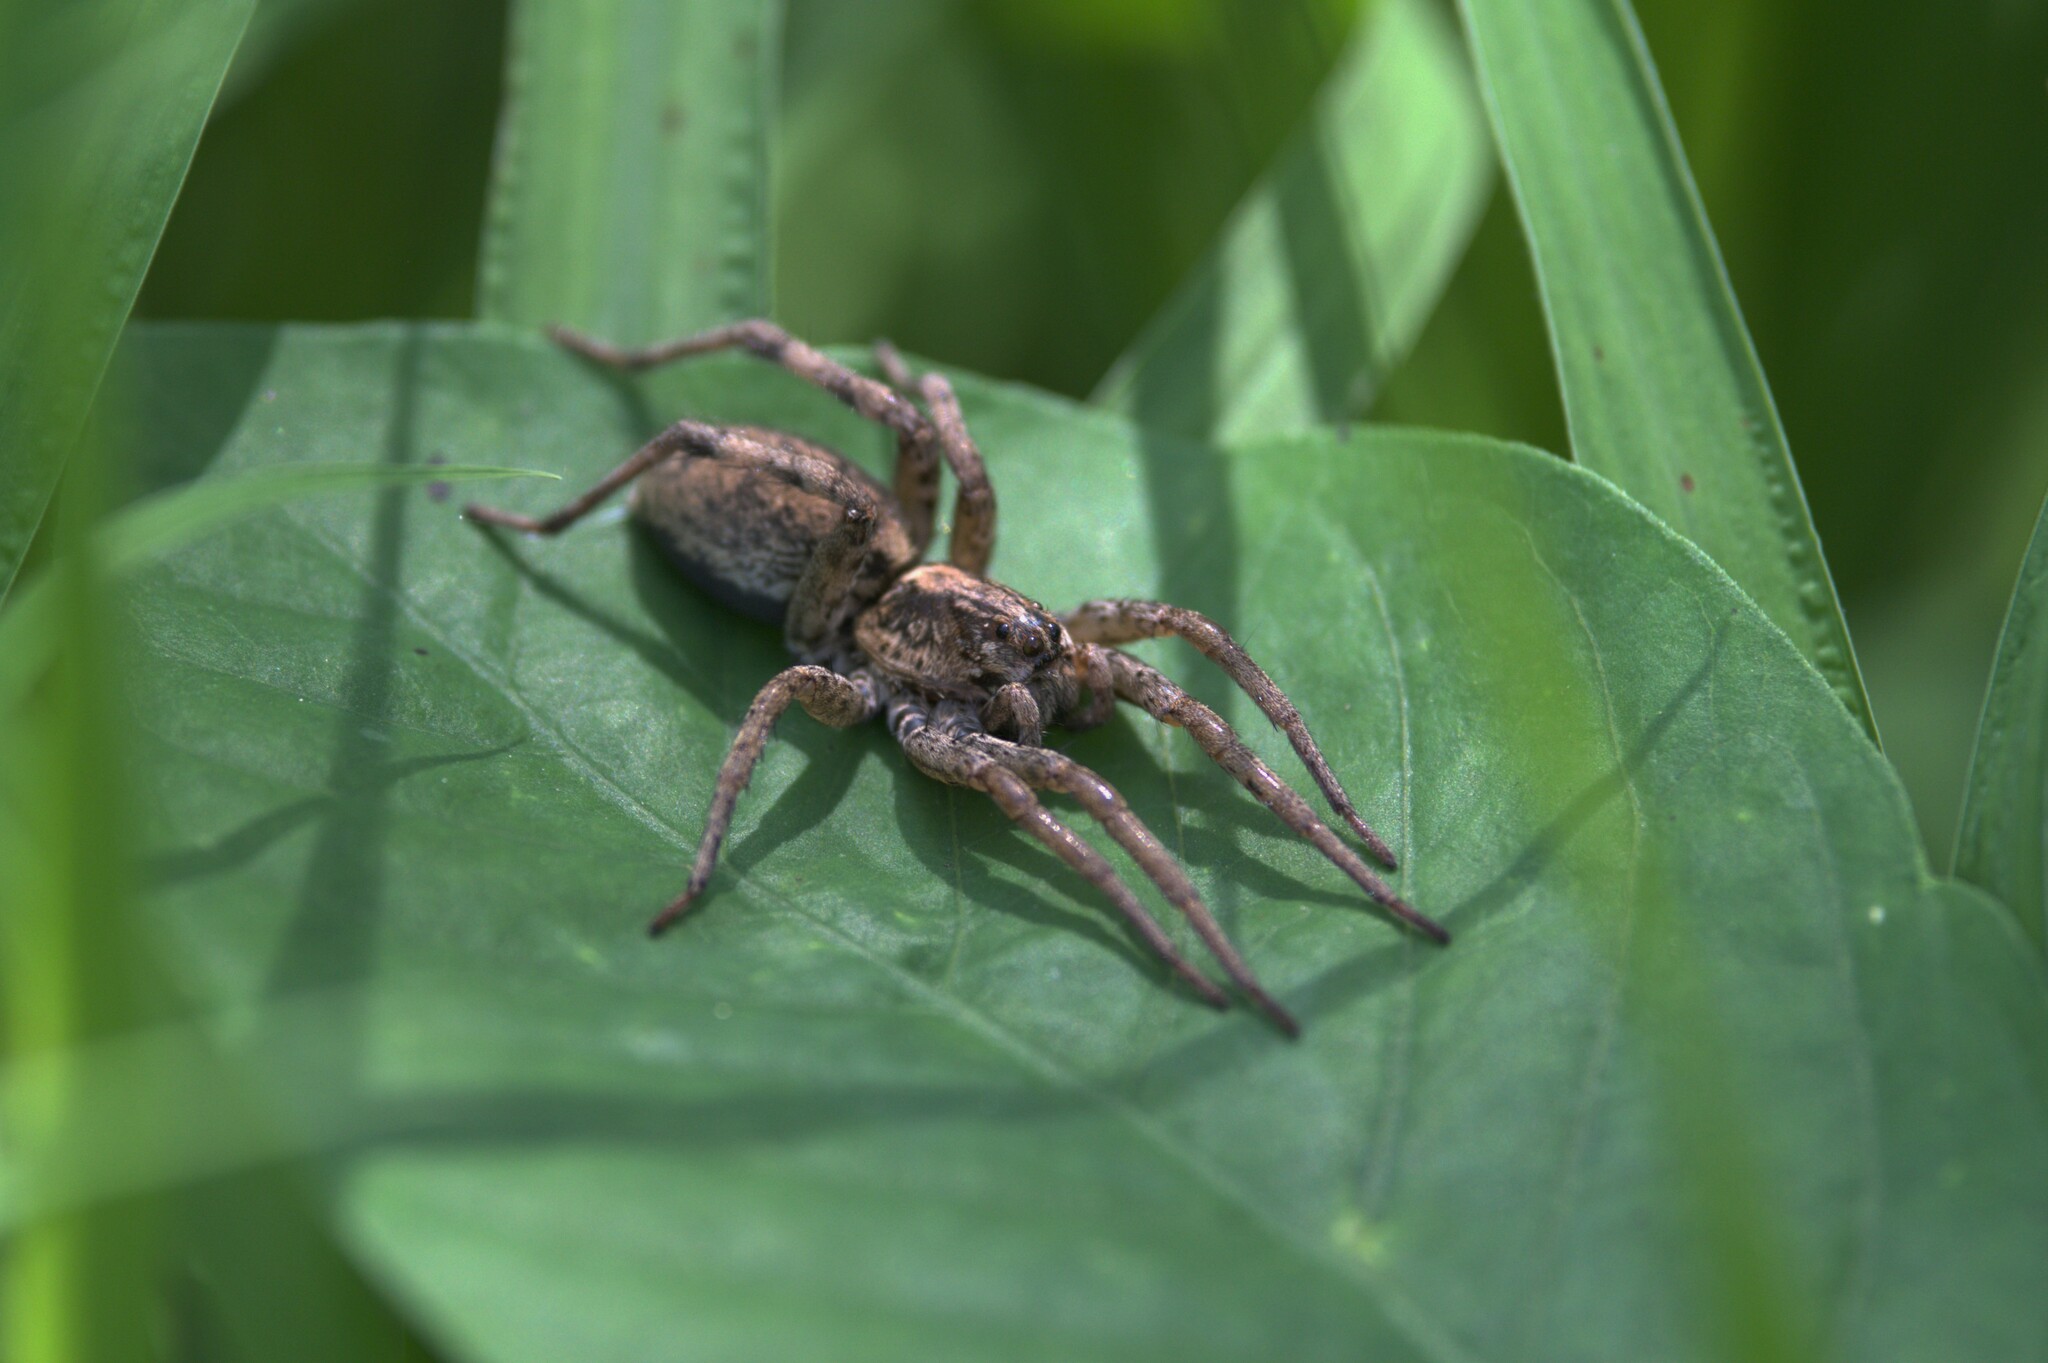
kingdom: Animalia
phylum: Arthropoda
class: Arachnida
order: Araneae
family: Lycosidae
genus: Hogna
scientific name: Hogna antelucana
